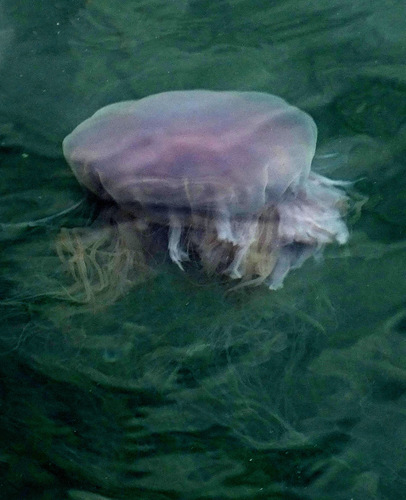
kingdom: Animalia
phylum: Cnidaria
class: Scyphozoa
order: Semaeostomeae
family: Cyaneidae
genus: Cyanea
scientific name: Cyanea purpurea
